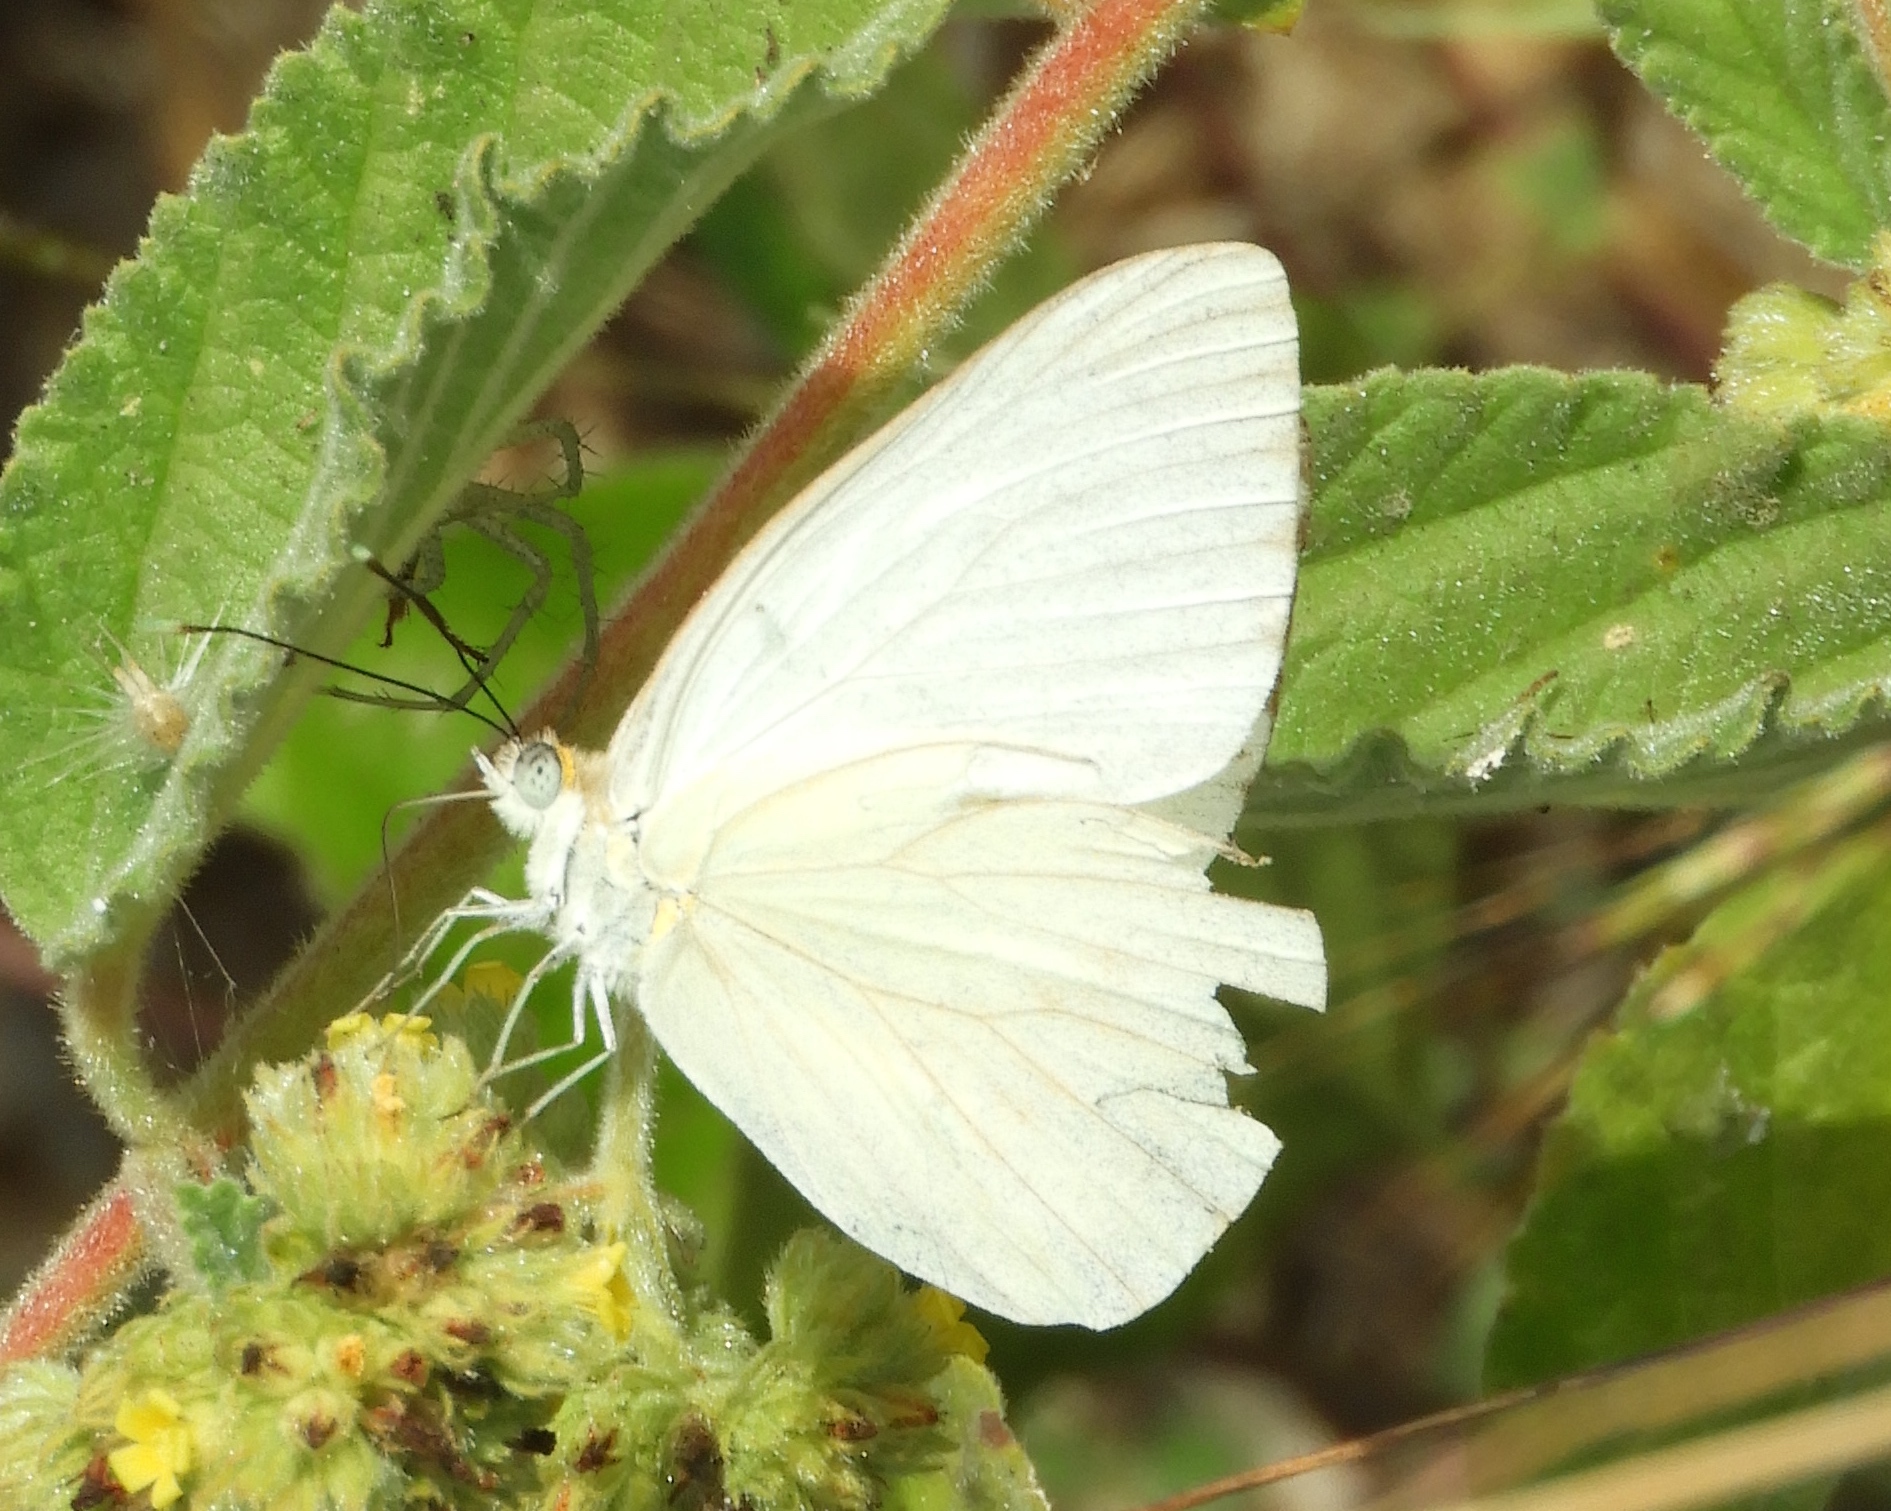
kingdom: Animalia
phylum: Arthropoda
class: Insecta
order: Lepidoptera
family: Pieridae
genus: Ascia
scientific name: Ascia monuste
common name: Great southern white
